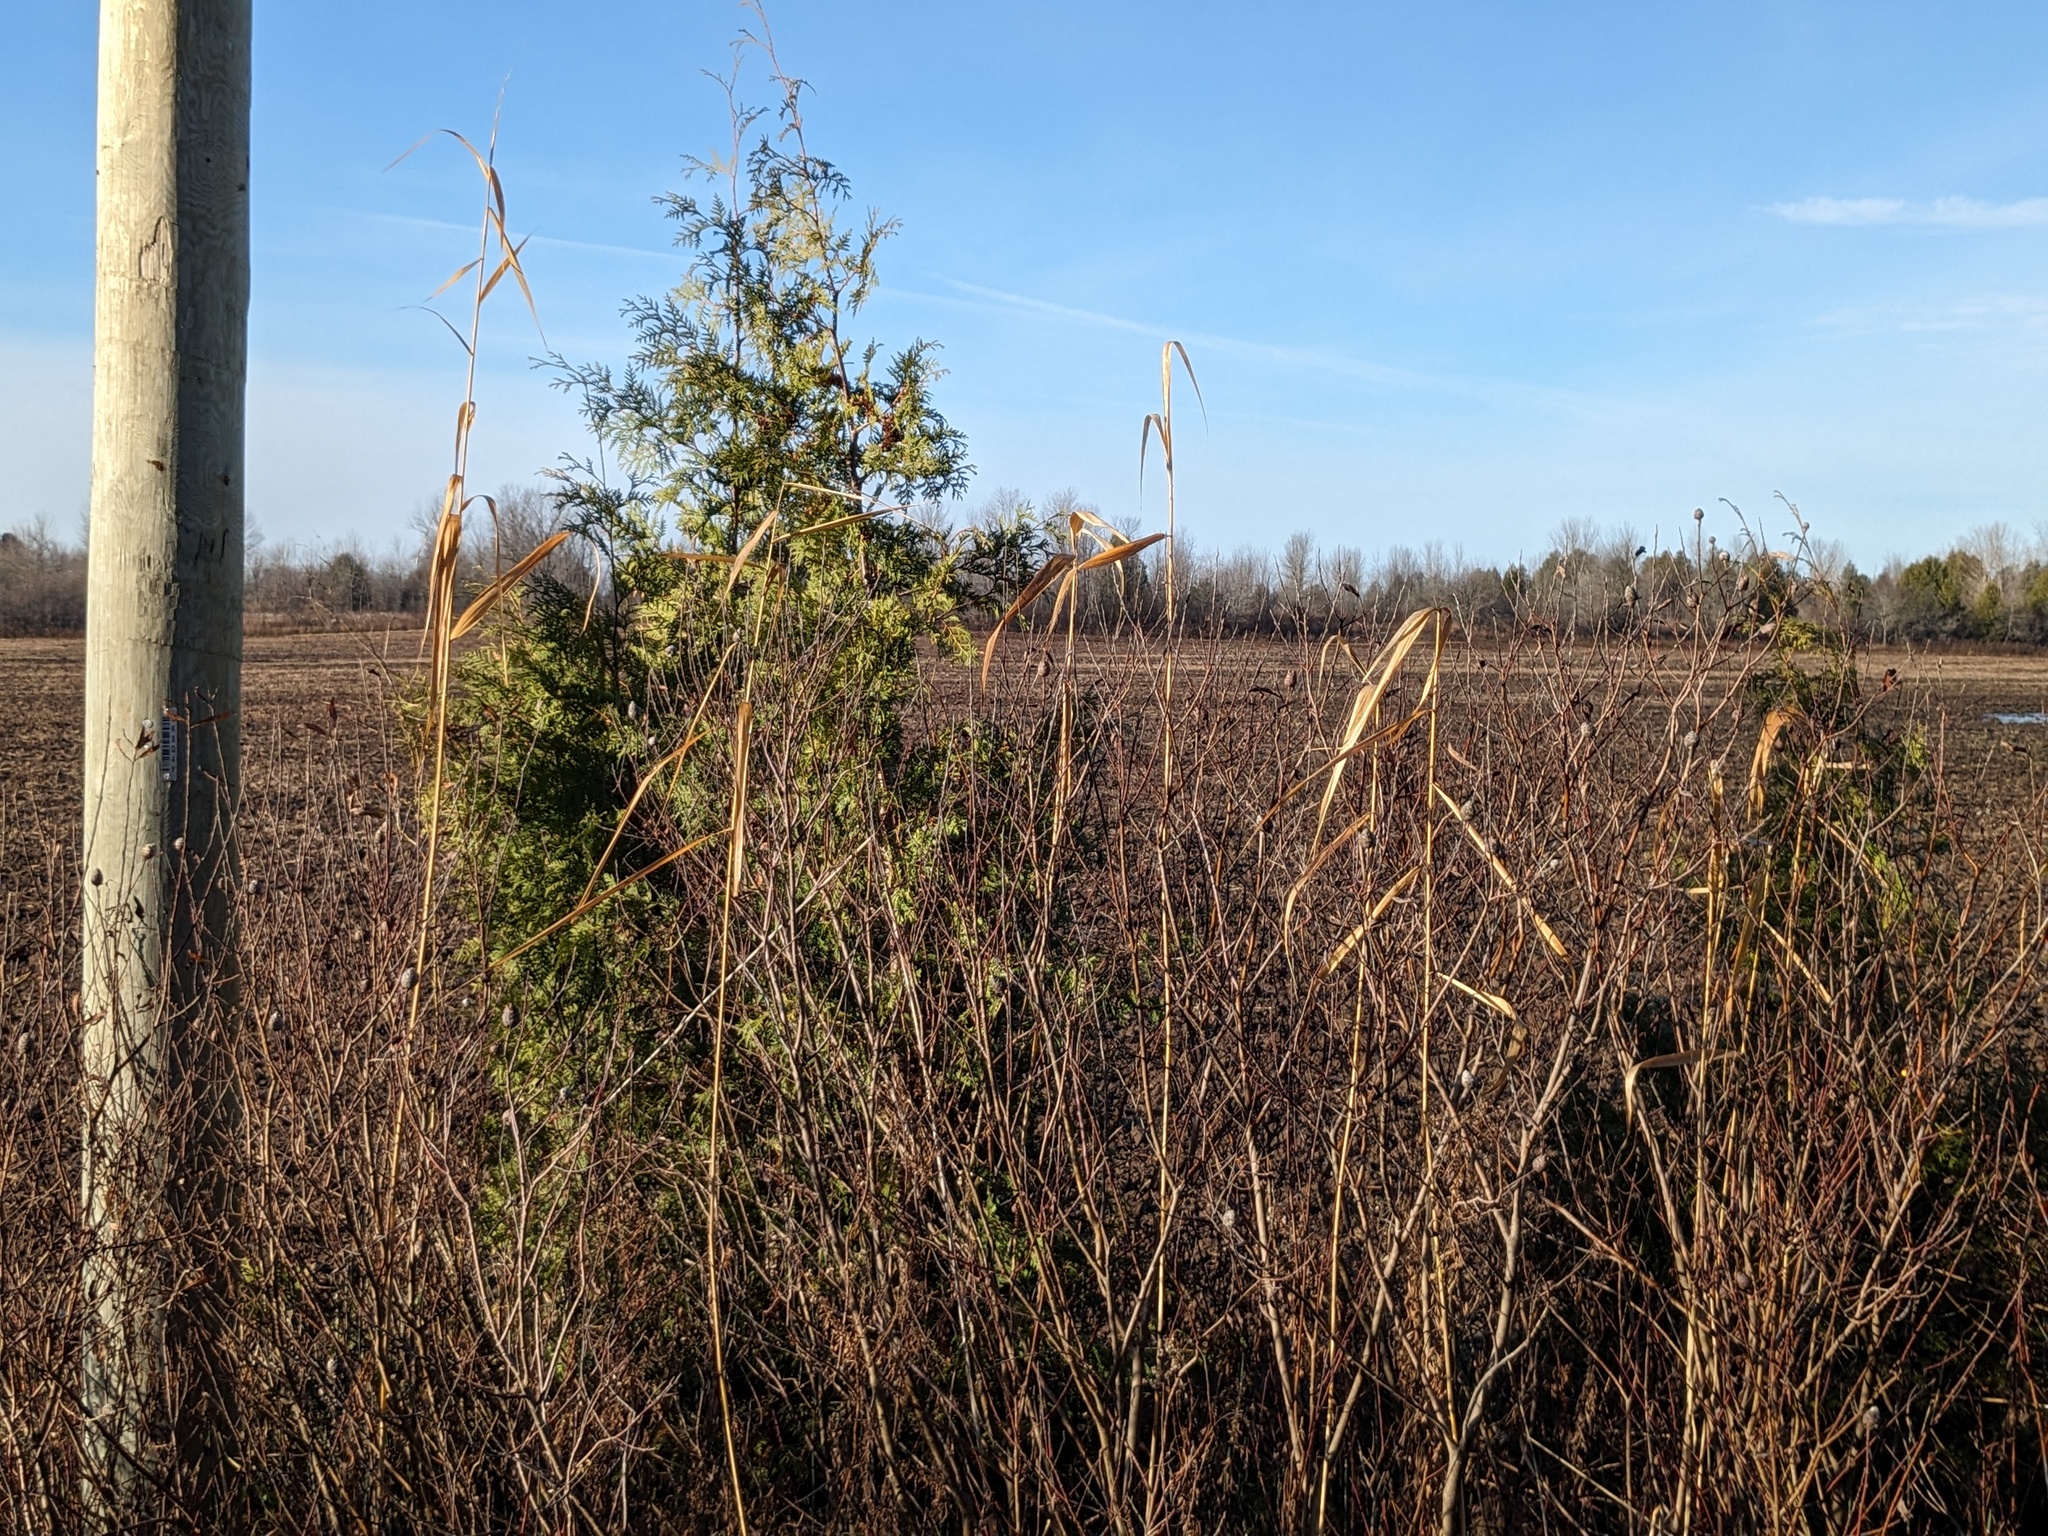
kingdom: Plantae
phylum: Tracheophyta
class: Liliopsida
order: Poales
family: Poaceae
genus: Phragmites
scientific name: Phragmites australis
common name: Common reed
